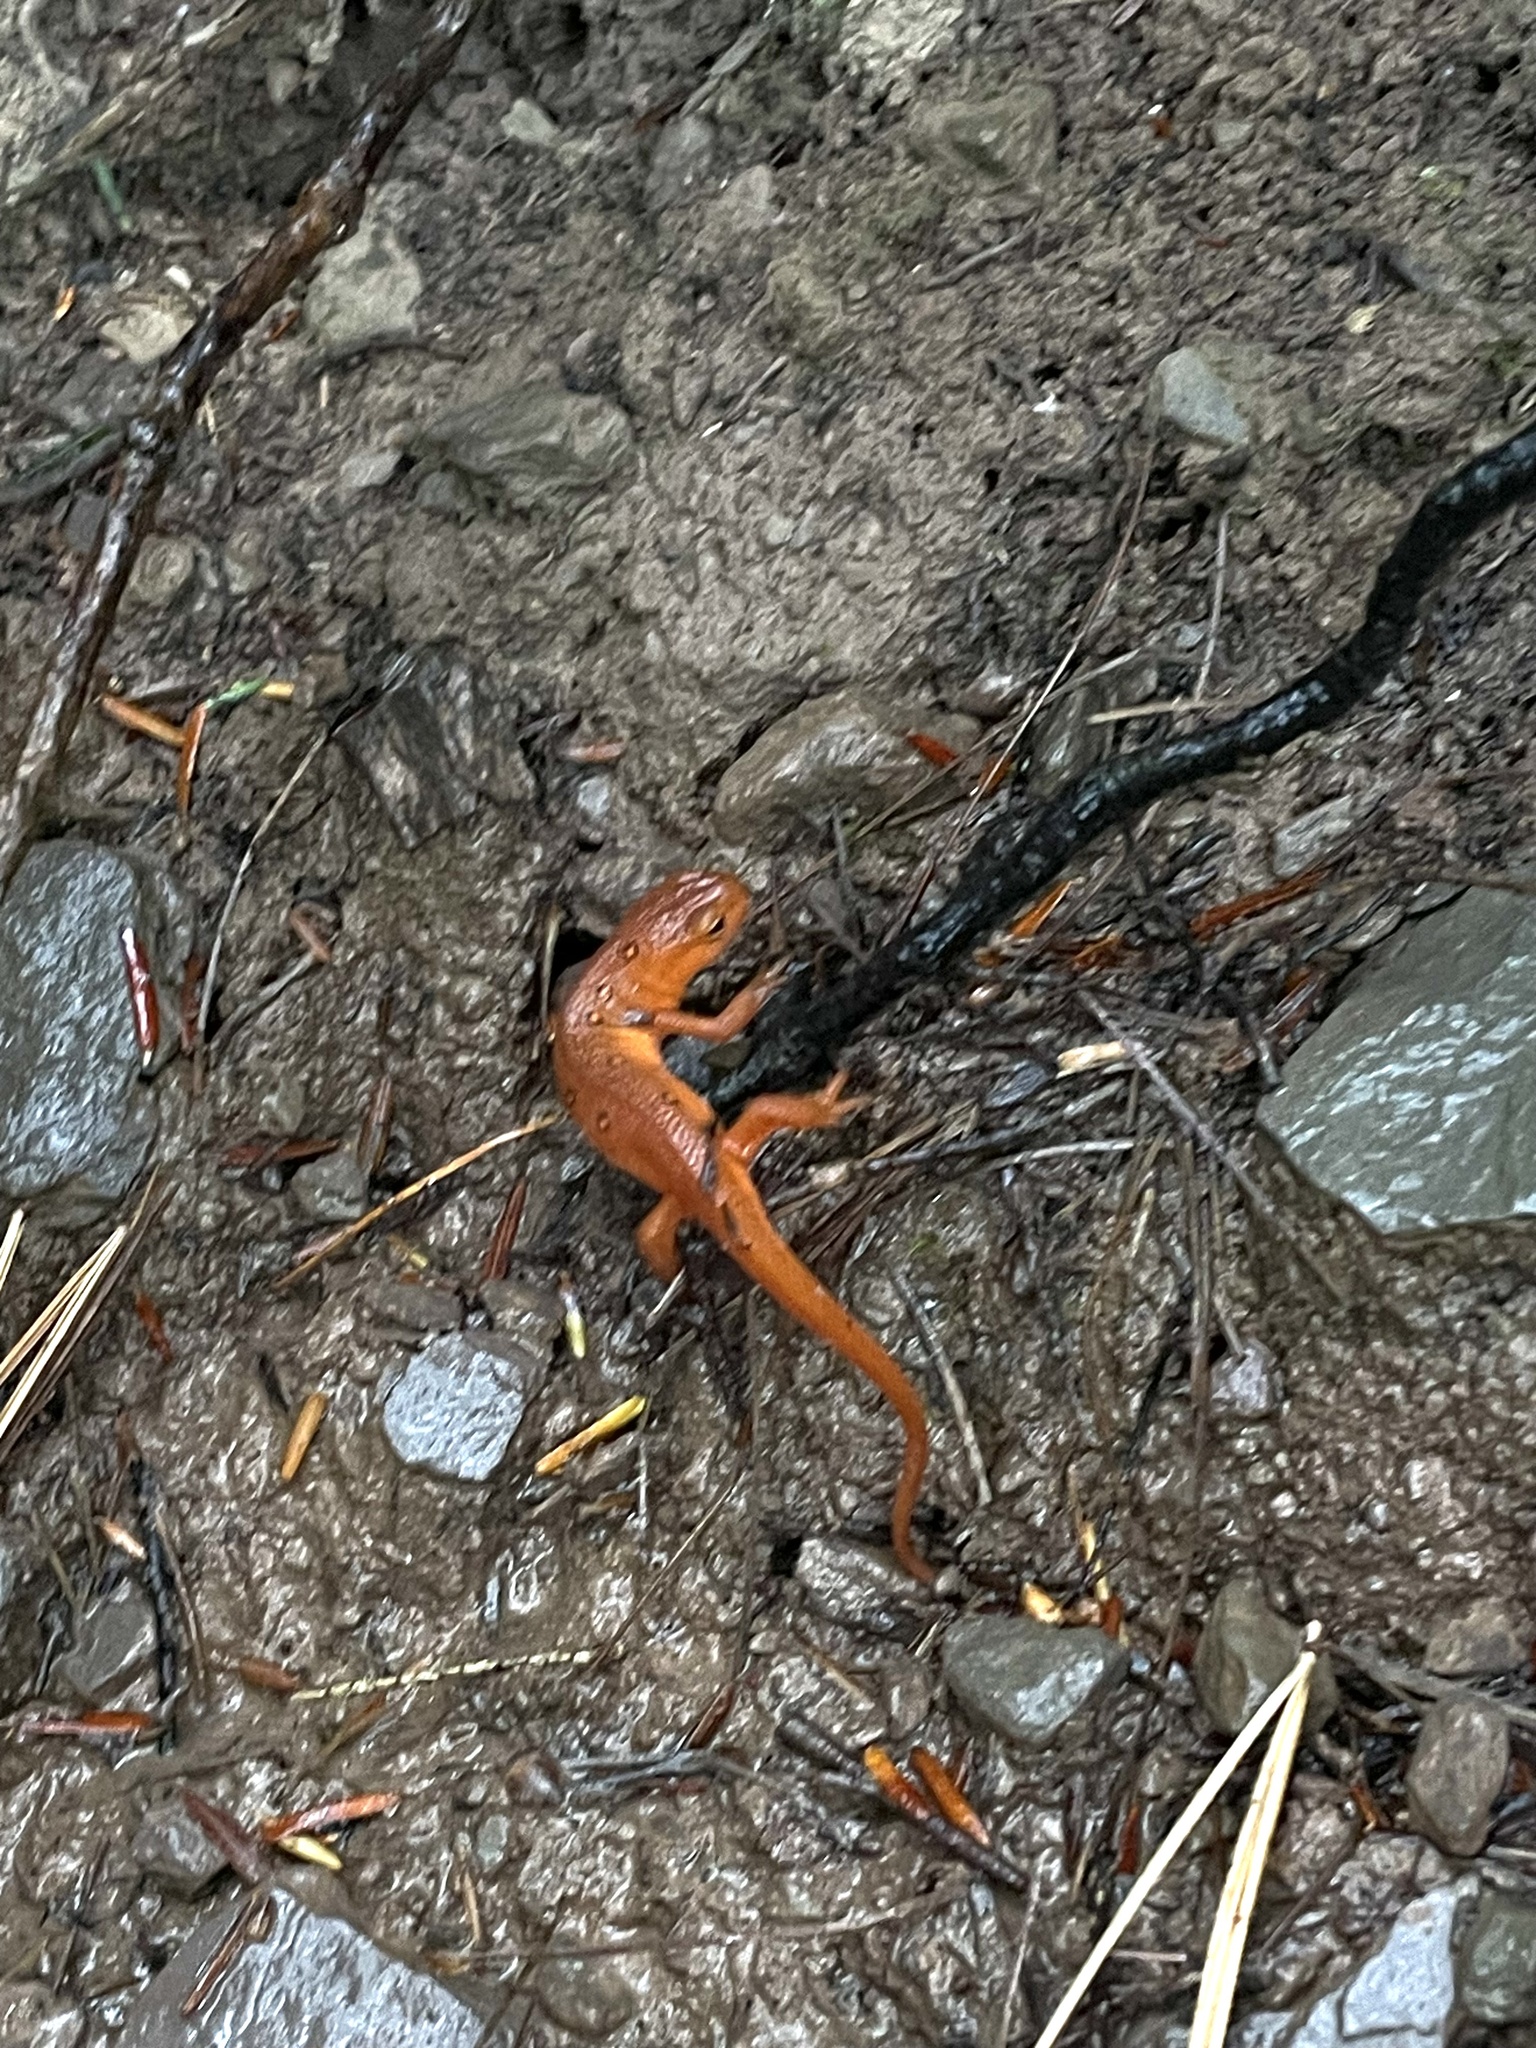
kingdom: Animalia
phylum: Chordata
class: Amphibia
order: Caudata
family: Salamandridae
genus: Notophthalmus
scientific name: Notophthalmus viridescens
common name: Eastern newt
